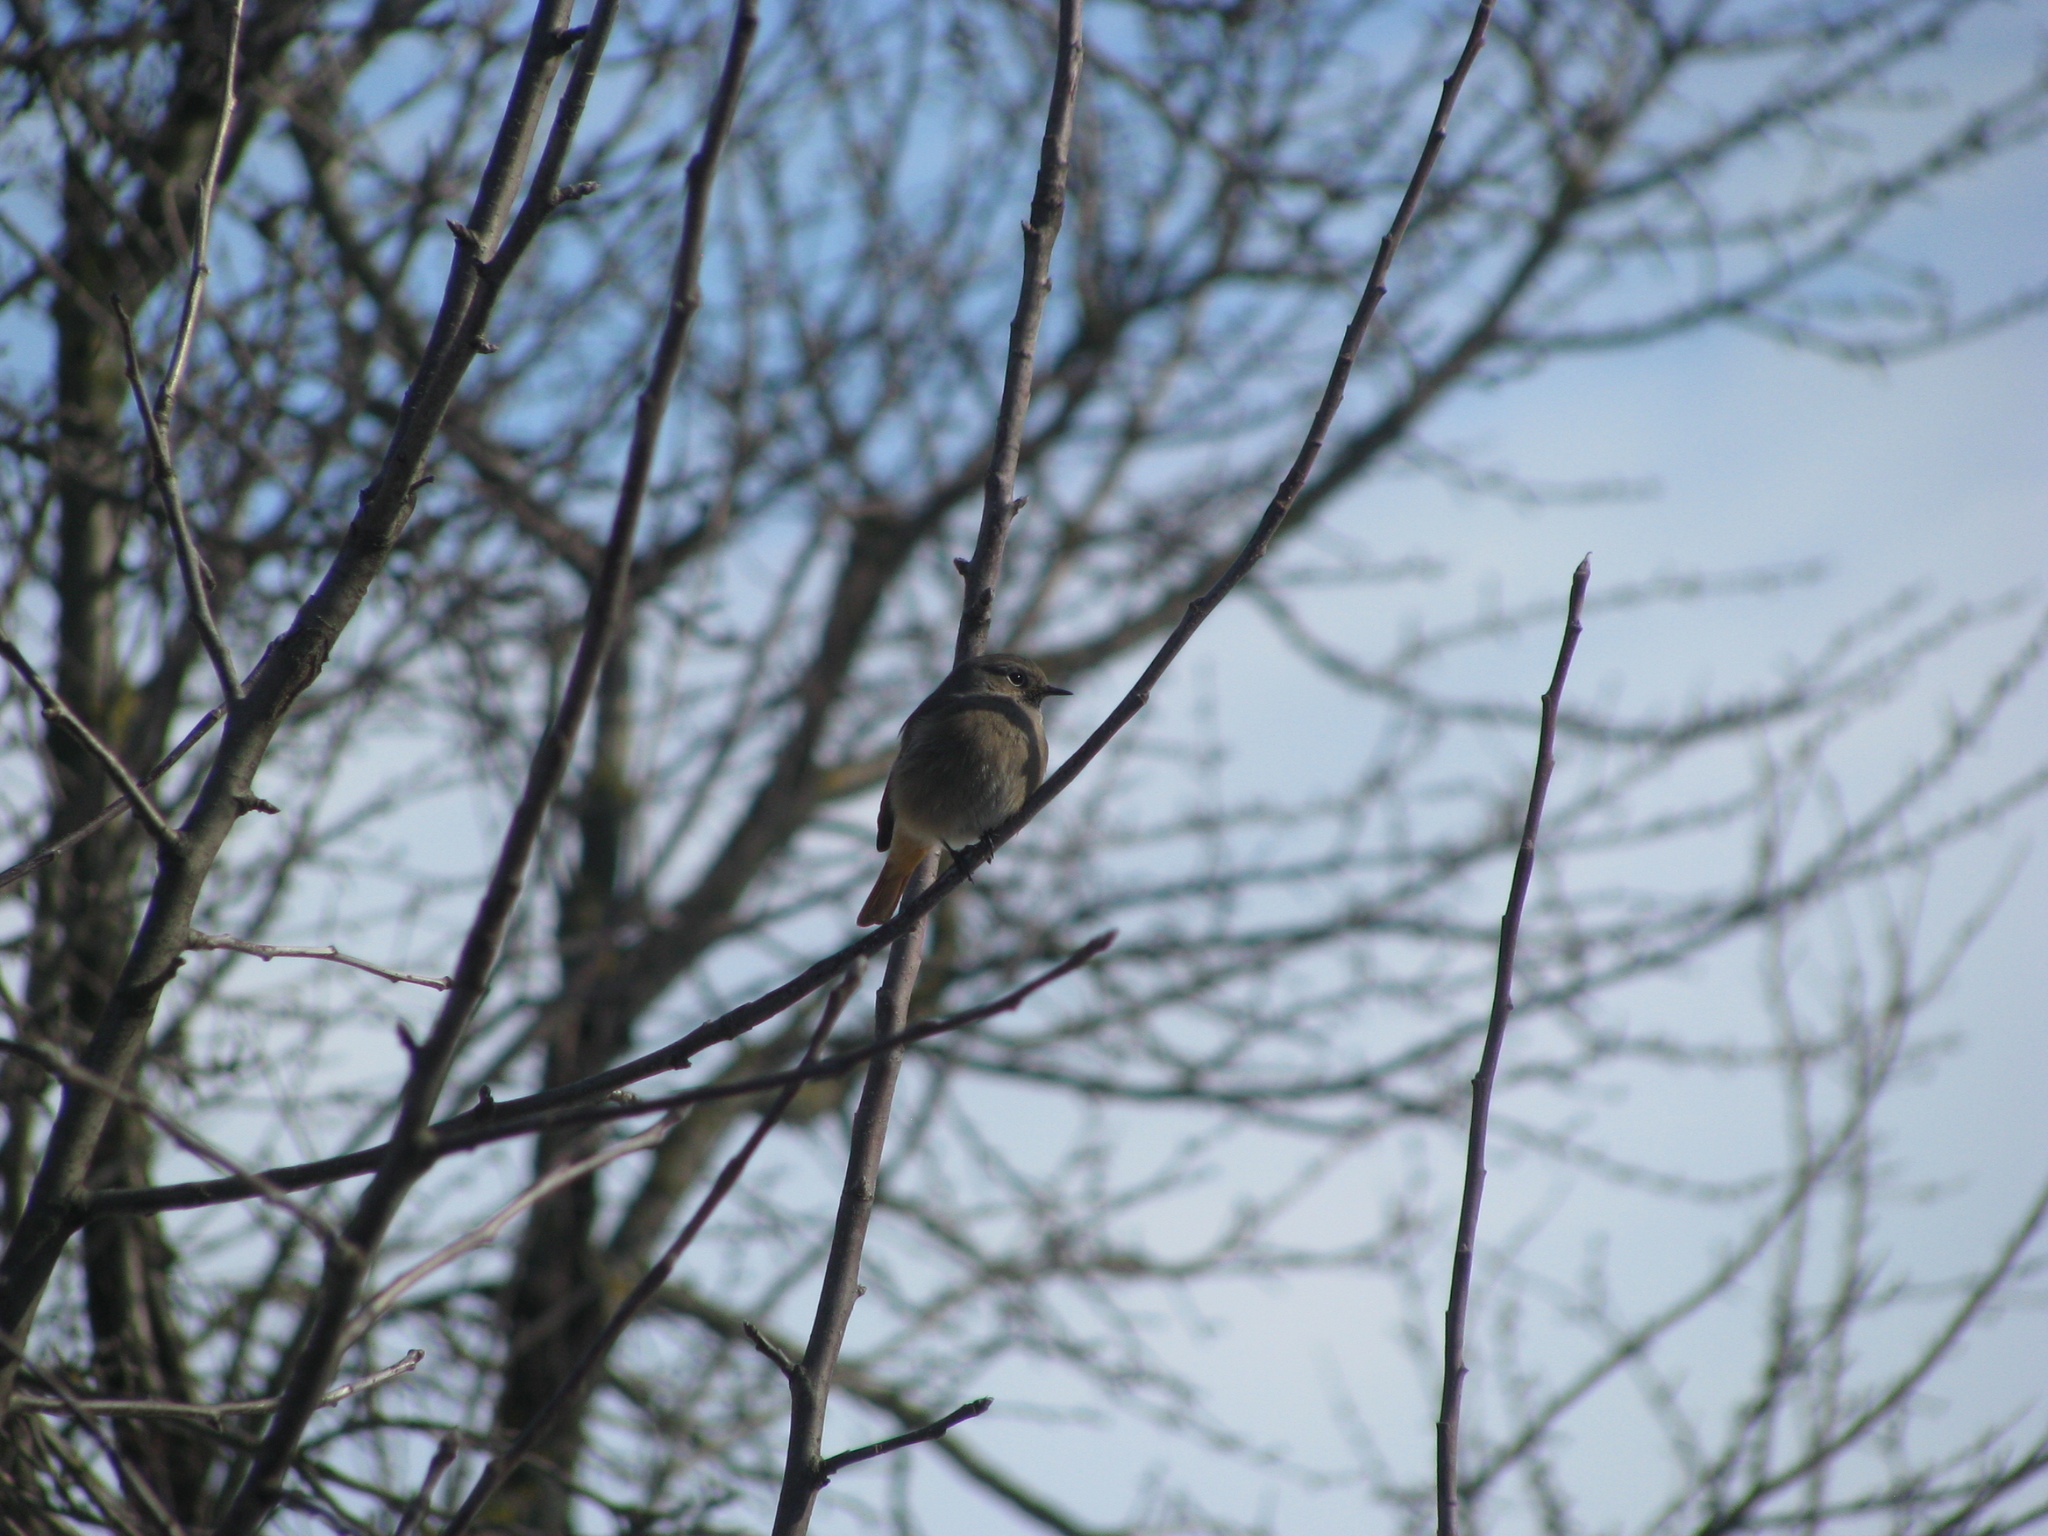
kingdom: Animalia
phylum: Chordata
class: Aves
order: Passeriformes
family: Muscicapidae
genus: Phoenicurus
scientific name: Phoenicurus ochruros
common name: Black redstart
